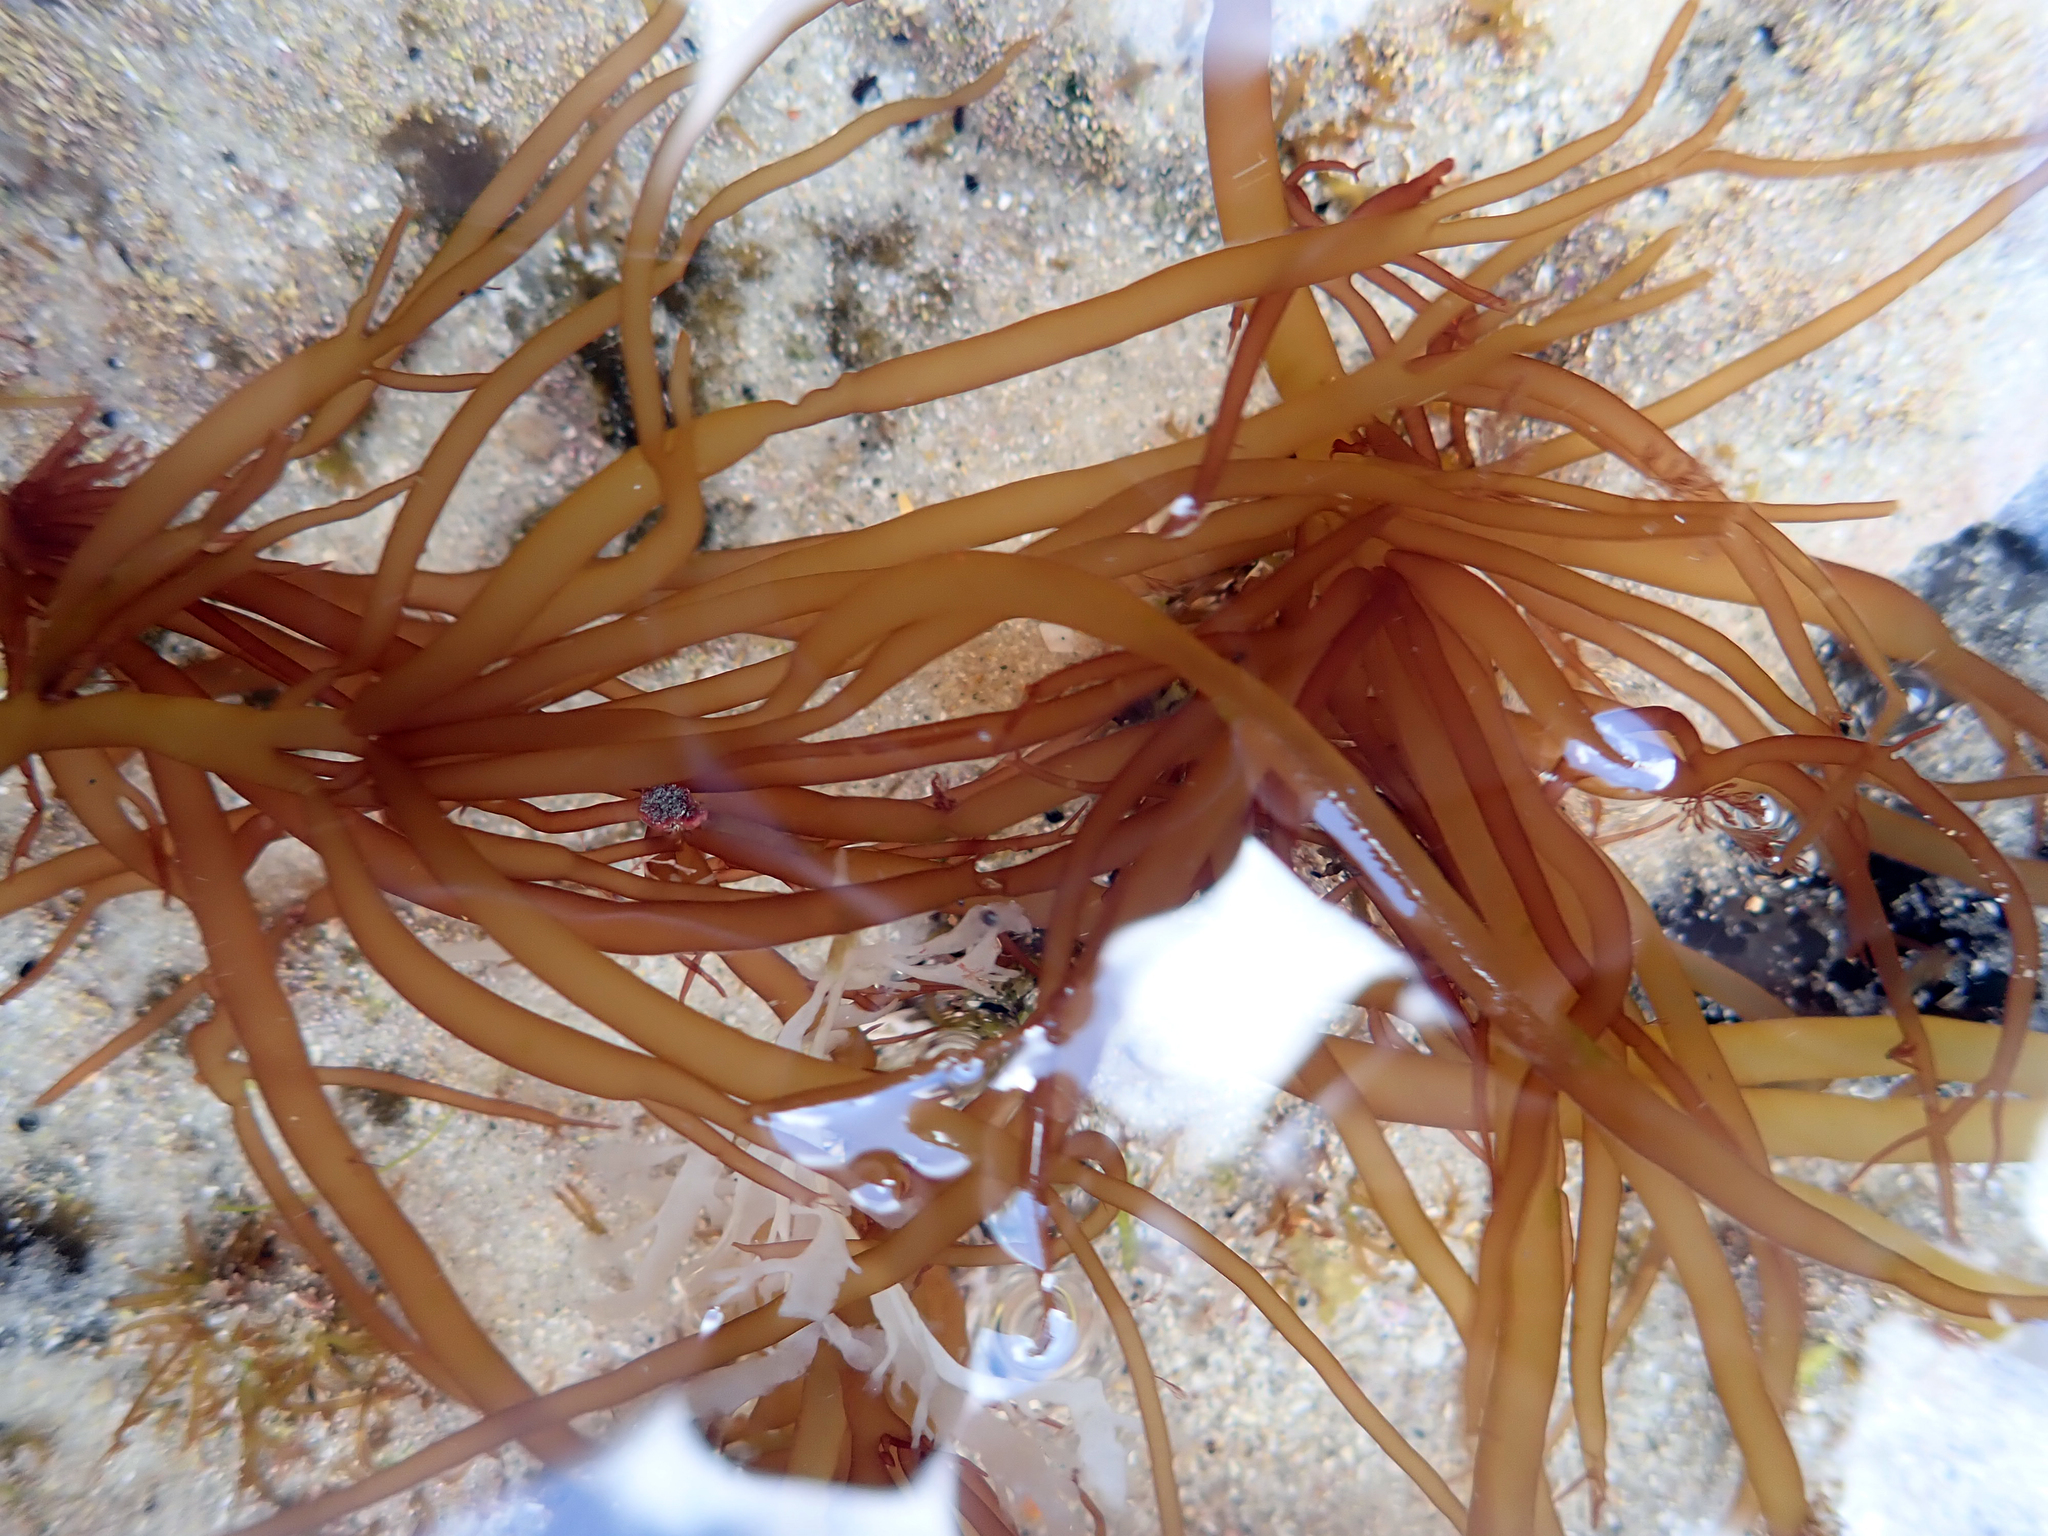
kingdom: Plantae
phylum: Rhodophyta
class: Florideophyceae
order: Halymeniales
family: Halymeniaceae
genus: Glaphyrosiphon
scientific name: Glaphyrosiphon lindaueri
